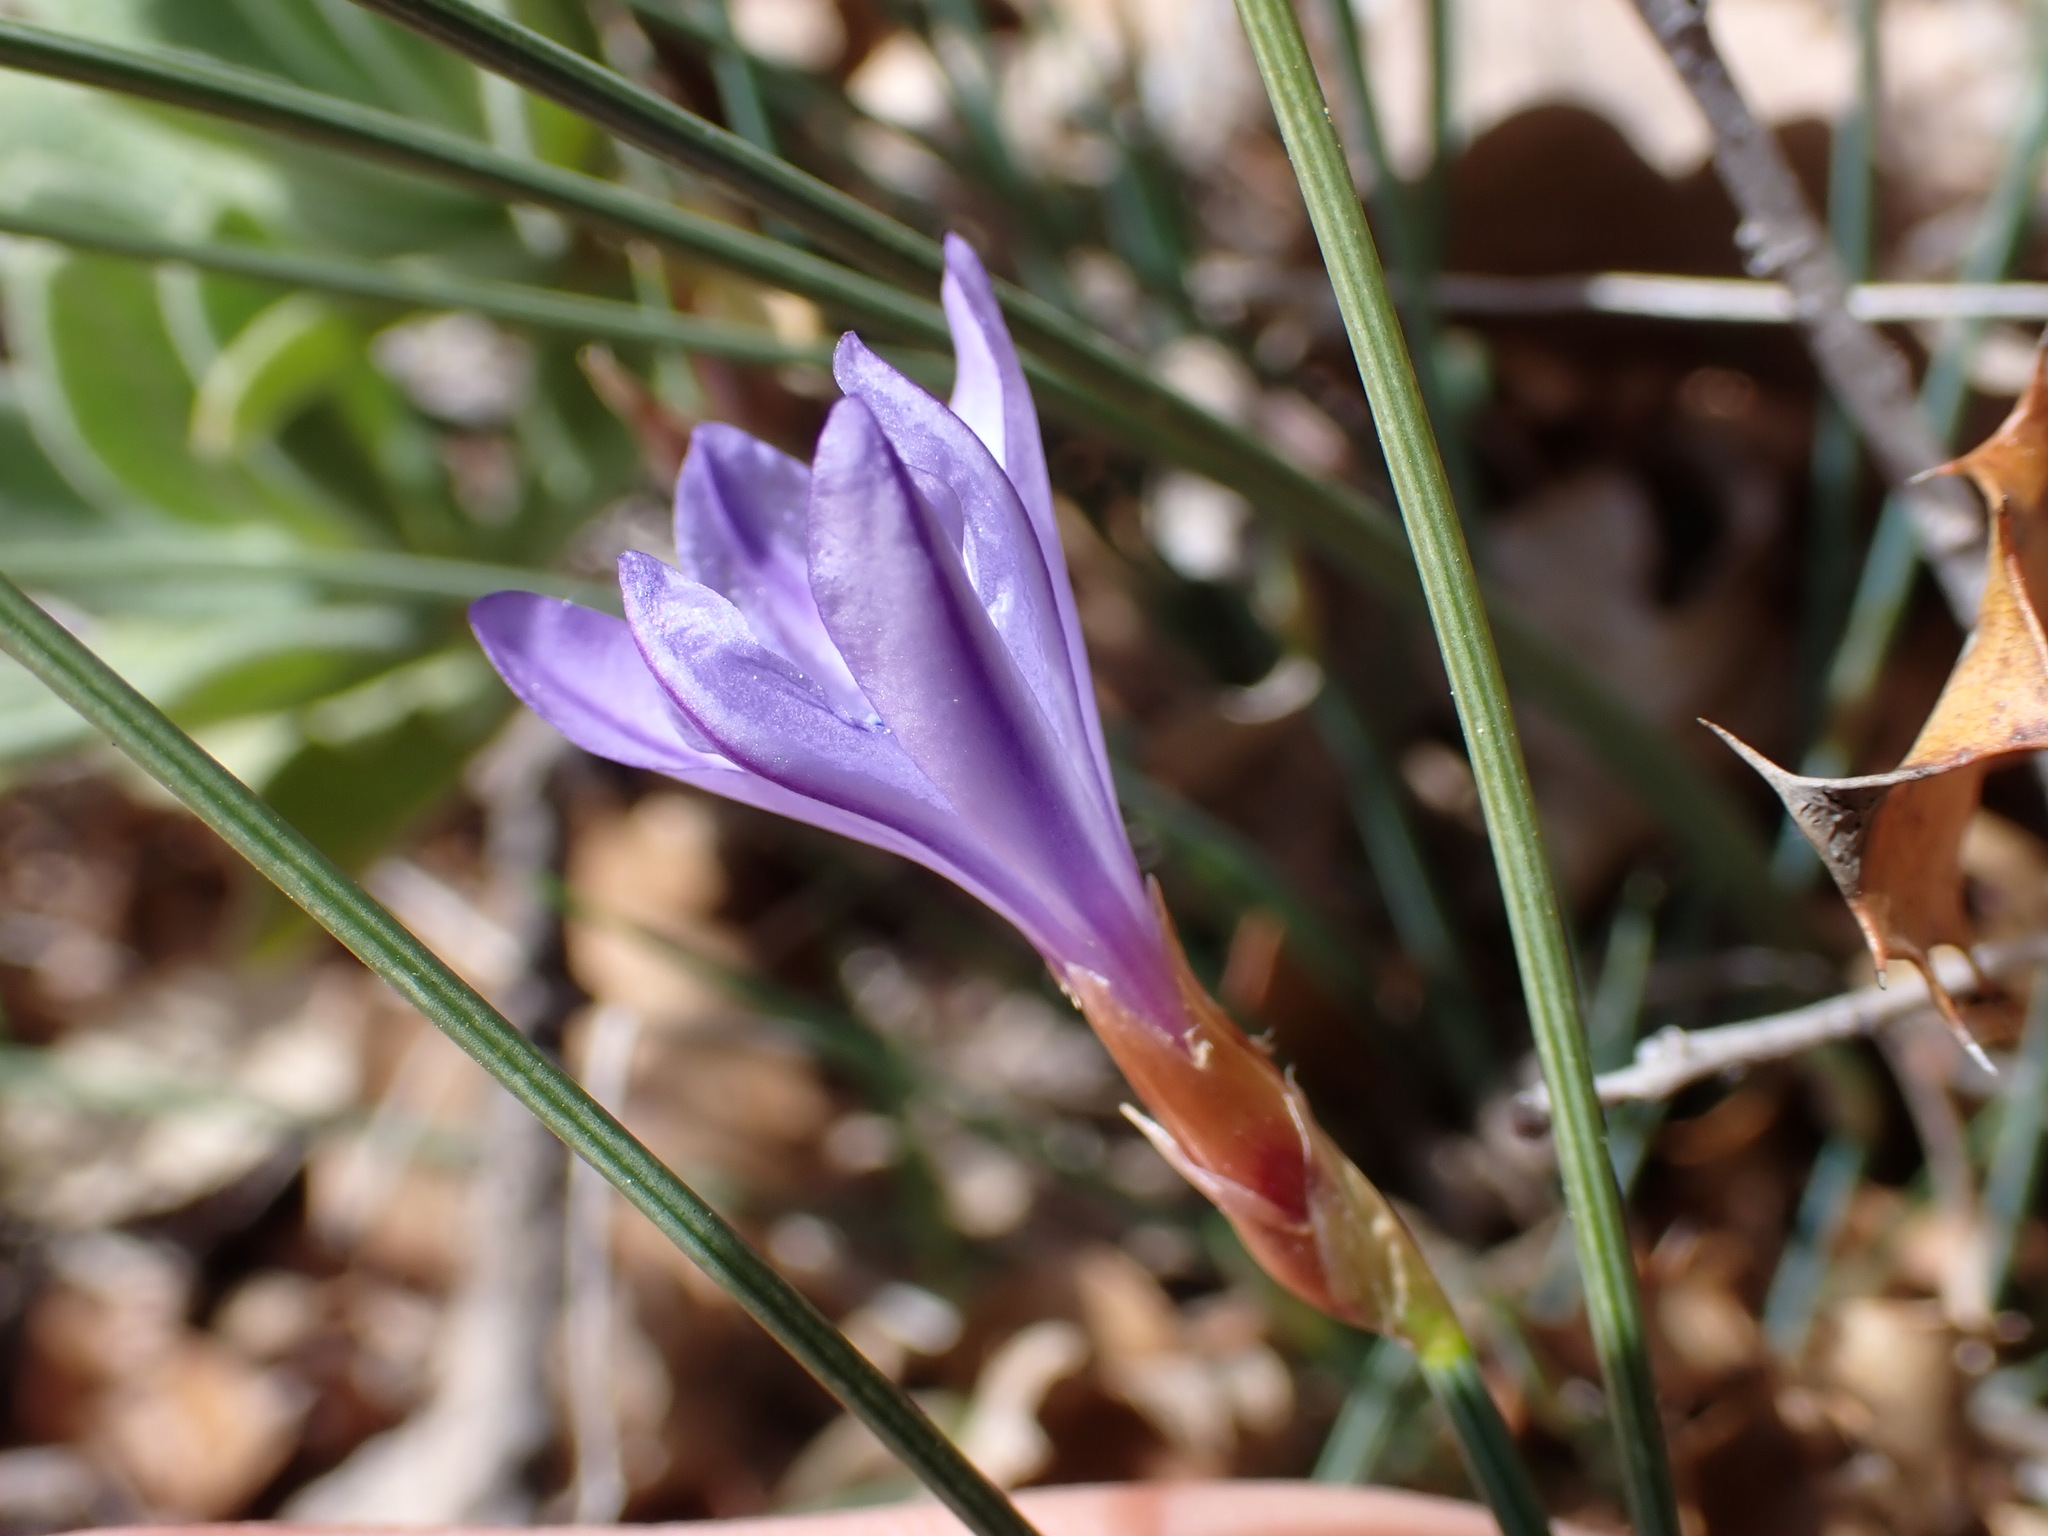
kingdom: Plantae
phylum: Tracheophyta
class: Liliopsida
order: Asparagales
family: Asparagaceae
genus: Aphyllanthes
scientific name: Aphyllanthes monspeliensis
